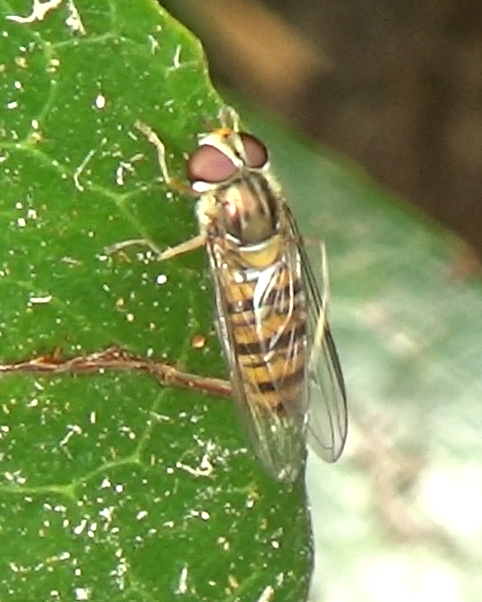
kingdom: Animalia
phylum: Arthropoda
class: Insecta
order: Diptera
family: Syrphidae
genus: Episyrphus
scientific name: Episyrphus balteatus
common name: Marmalade hoverfly
